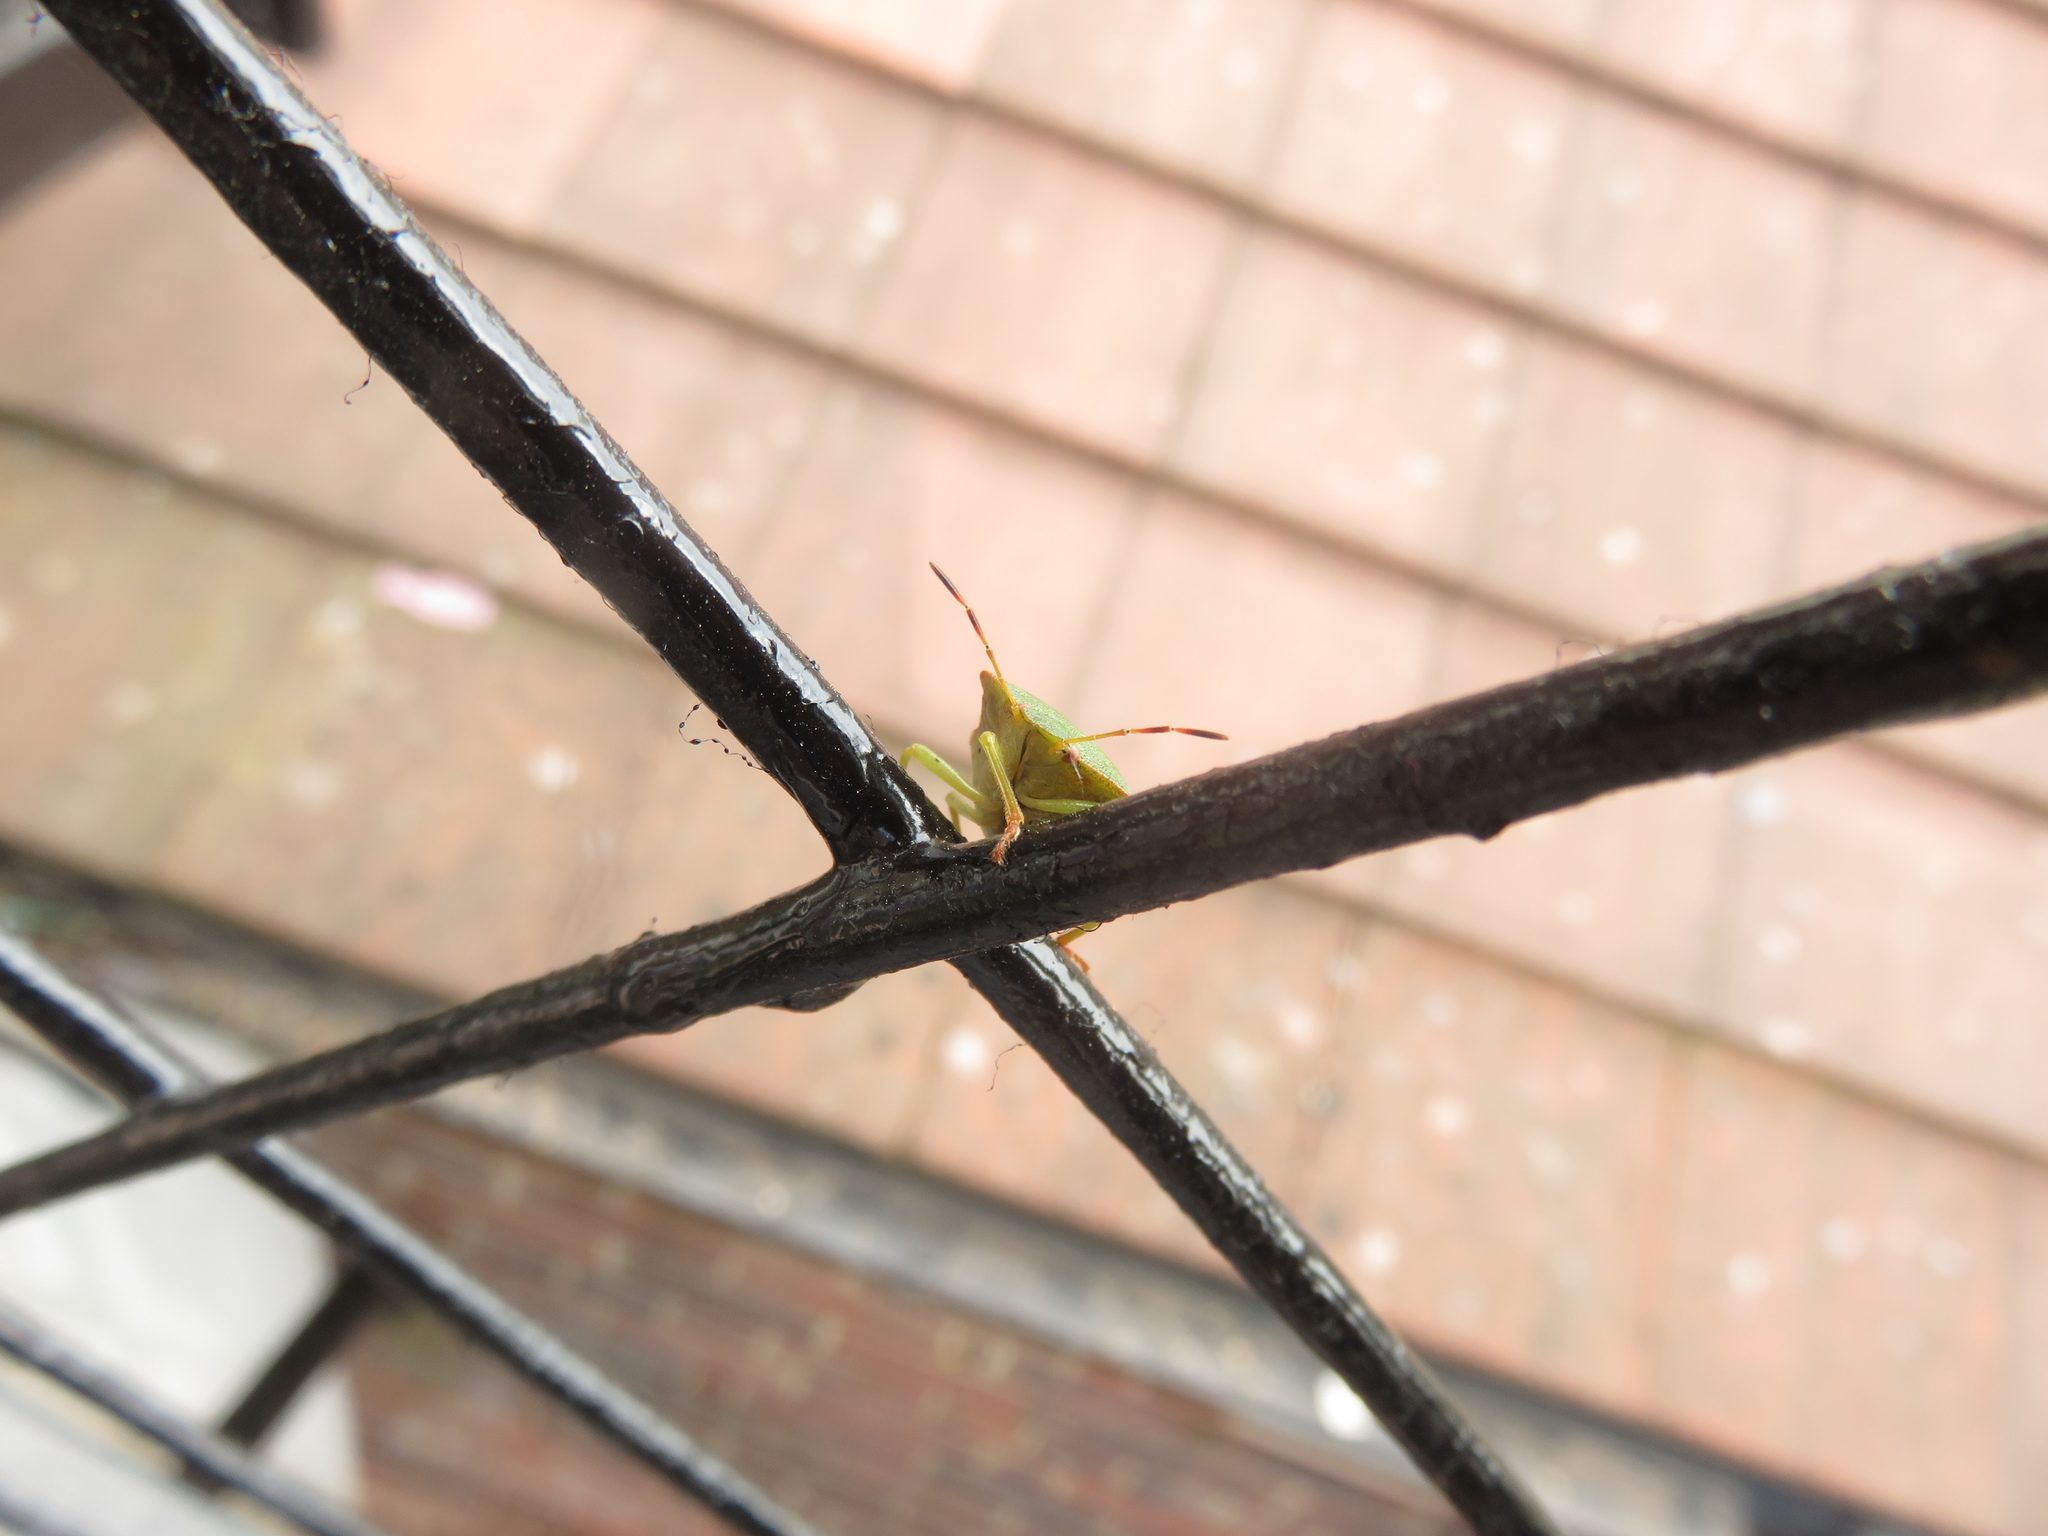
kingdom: Animalia
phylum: Arthropoda
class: Insecta
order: Hemiptera
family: Pentatomidae
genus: Palomena
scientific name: Palomena prasina
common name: Green shieldbug
